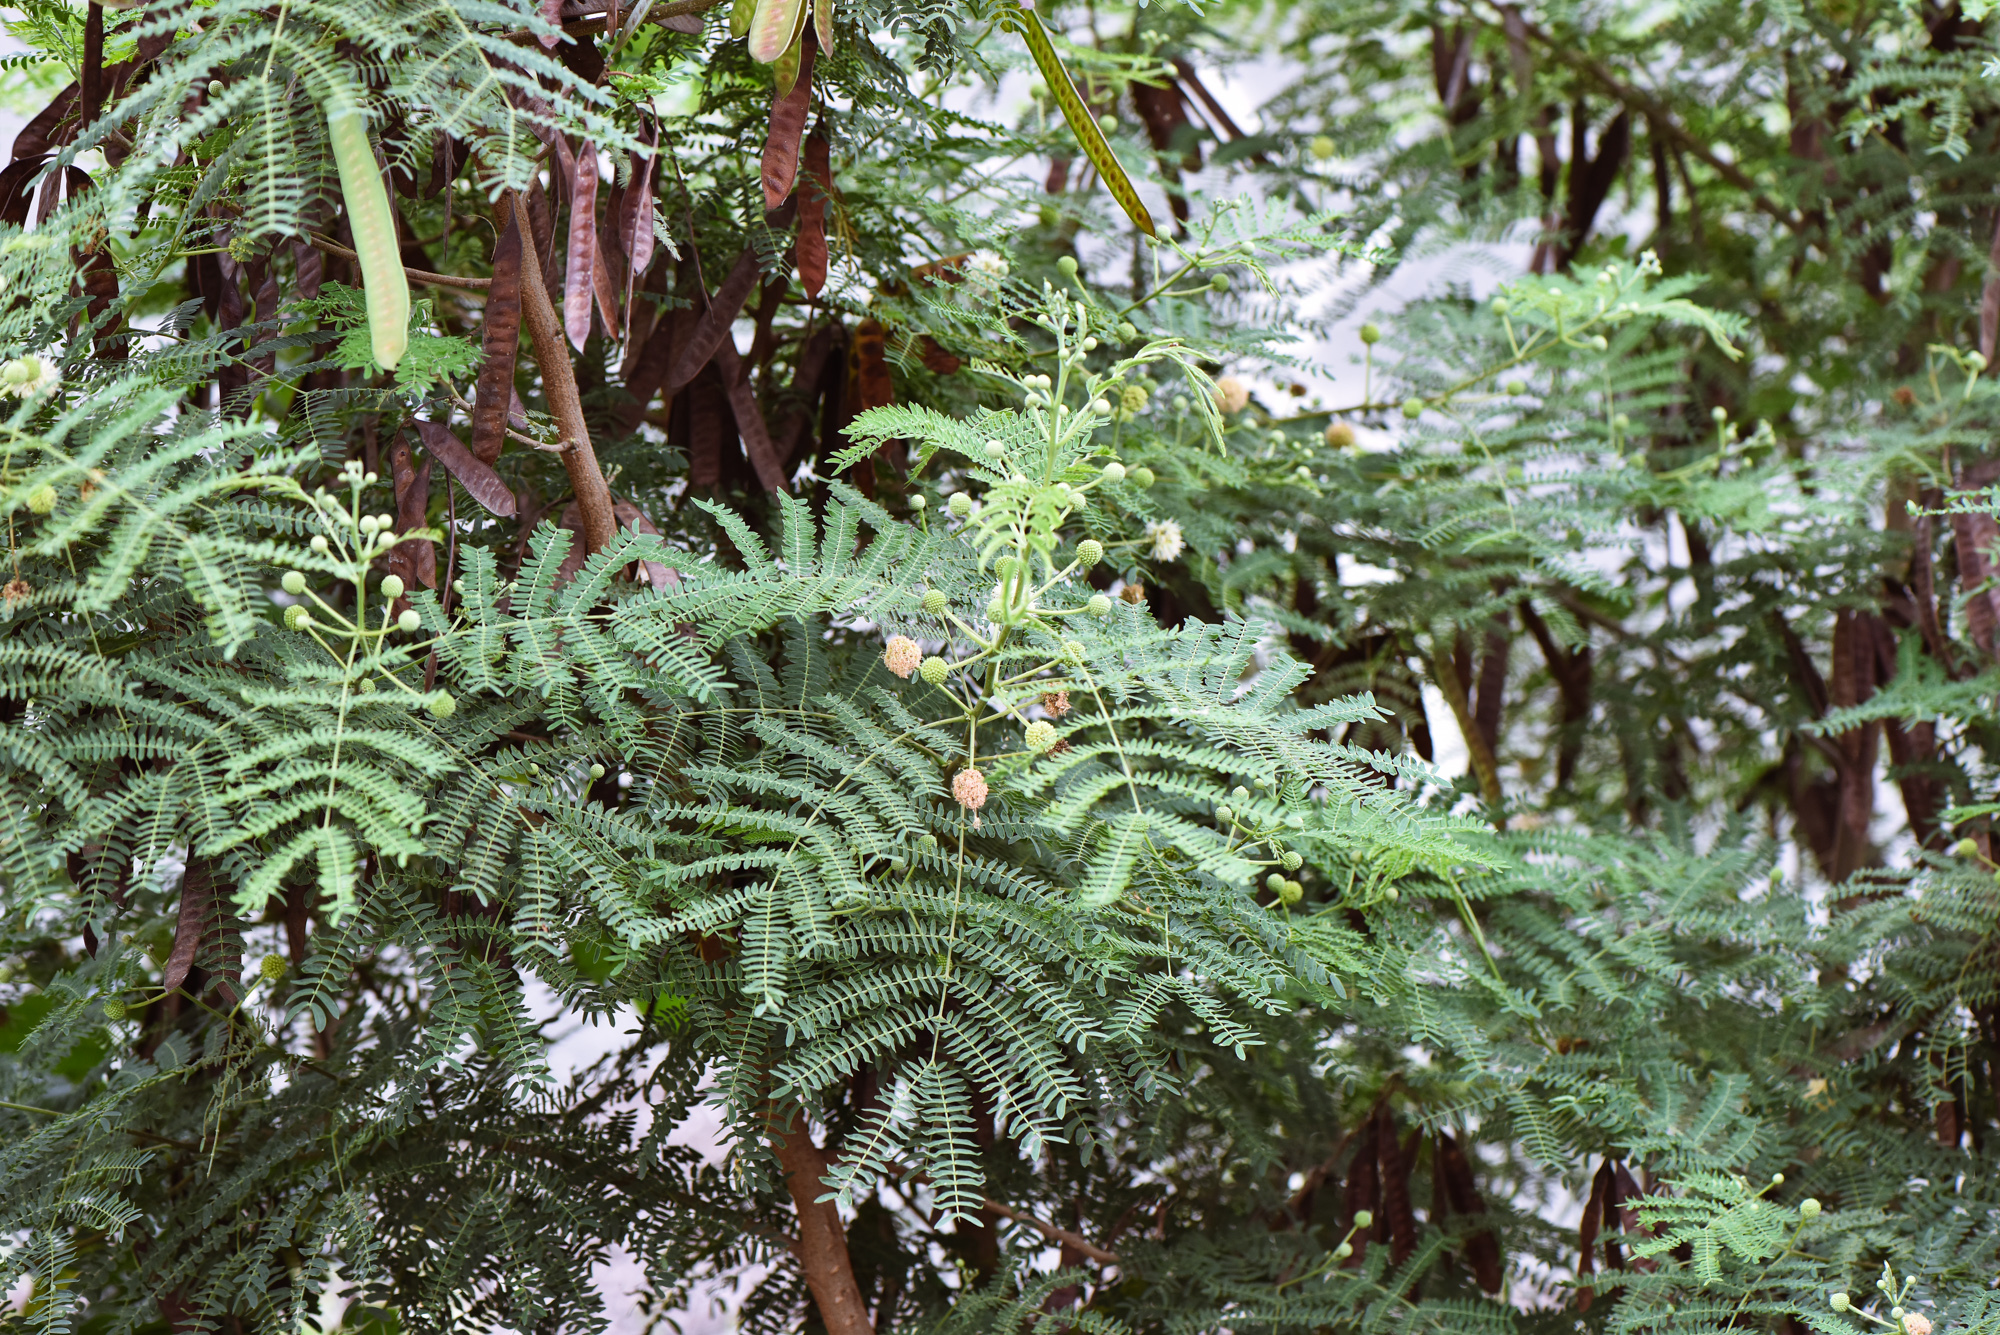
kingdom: Plantae
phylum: Tracheophyta
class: Magnoliopsida
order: Fabales
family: Fabaceae
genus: Leucaena
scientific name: Leucaena leucocephala
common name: White leadtree
